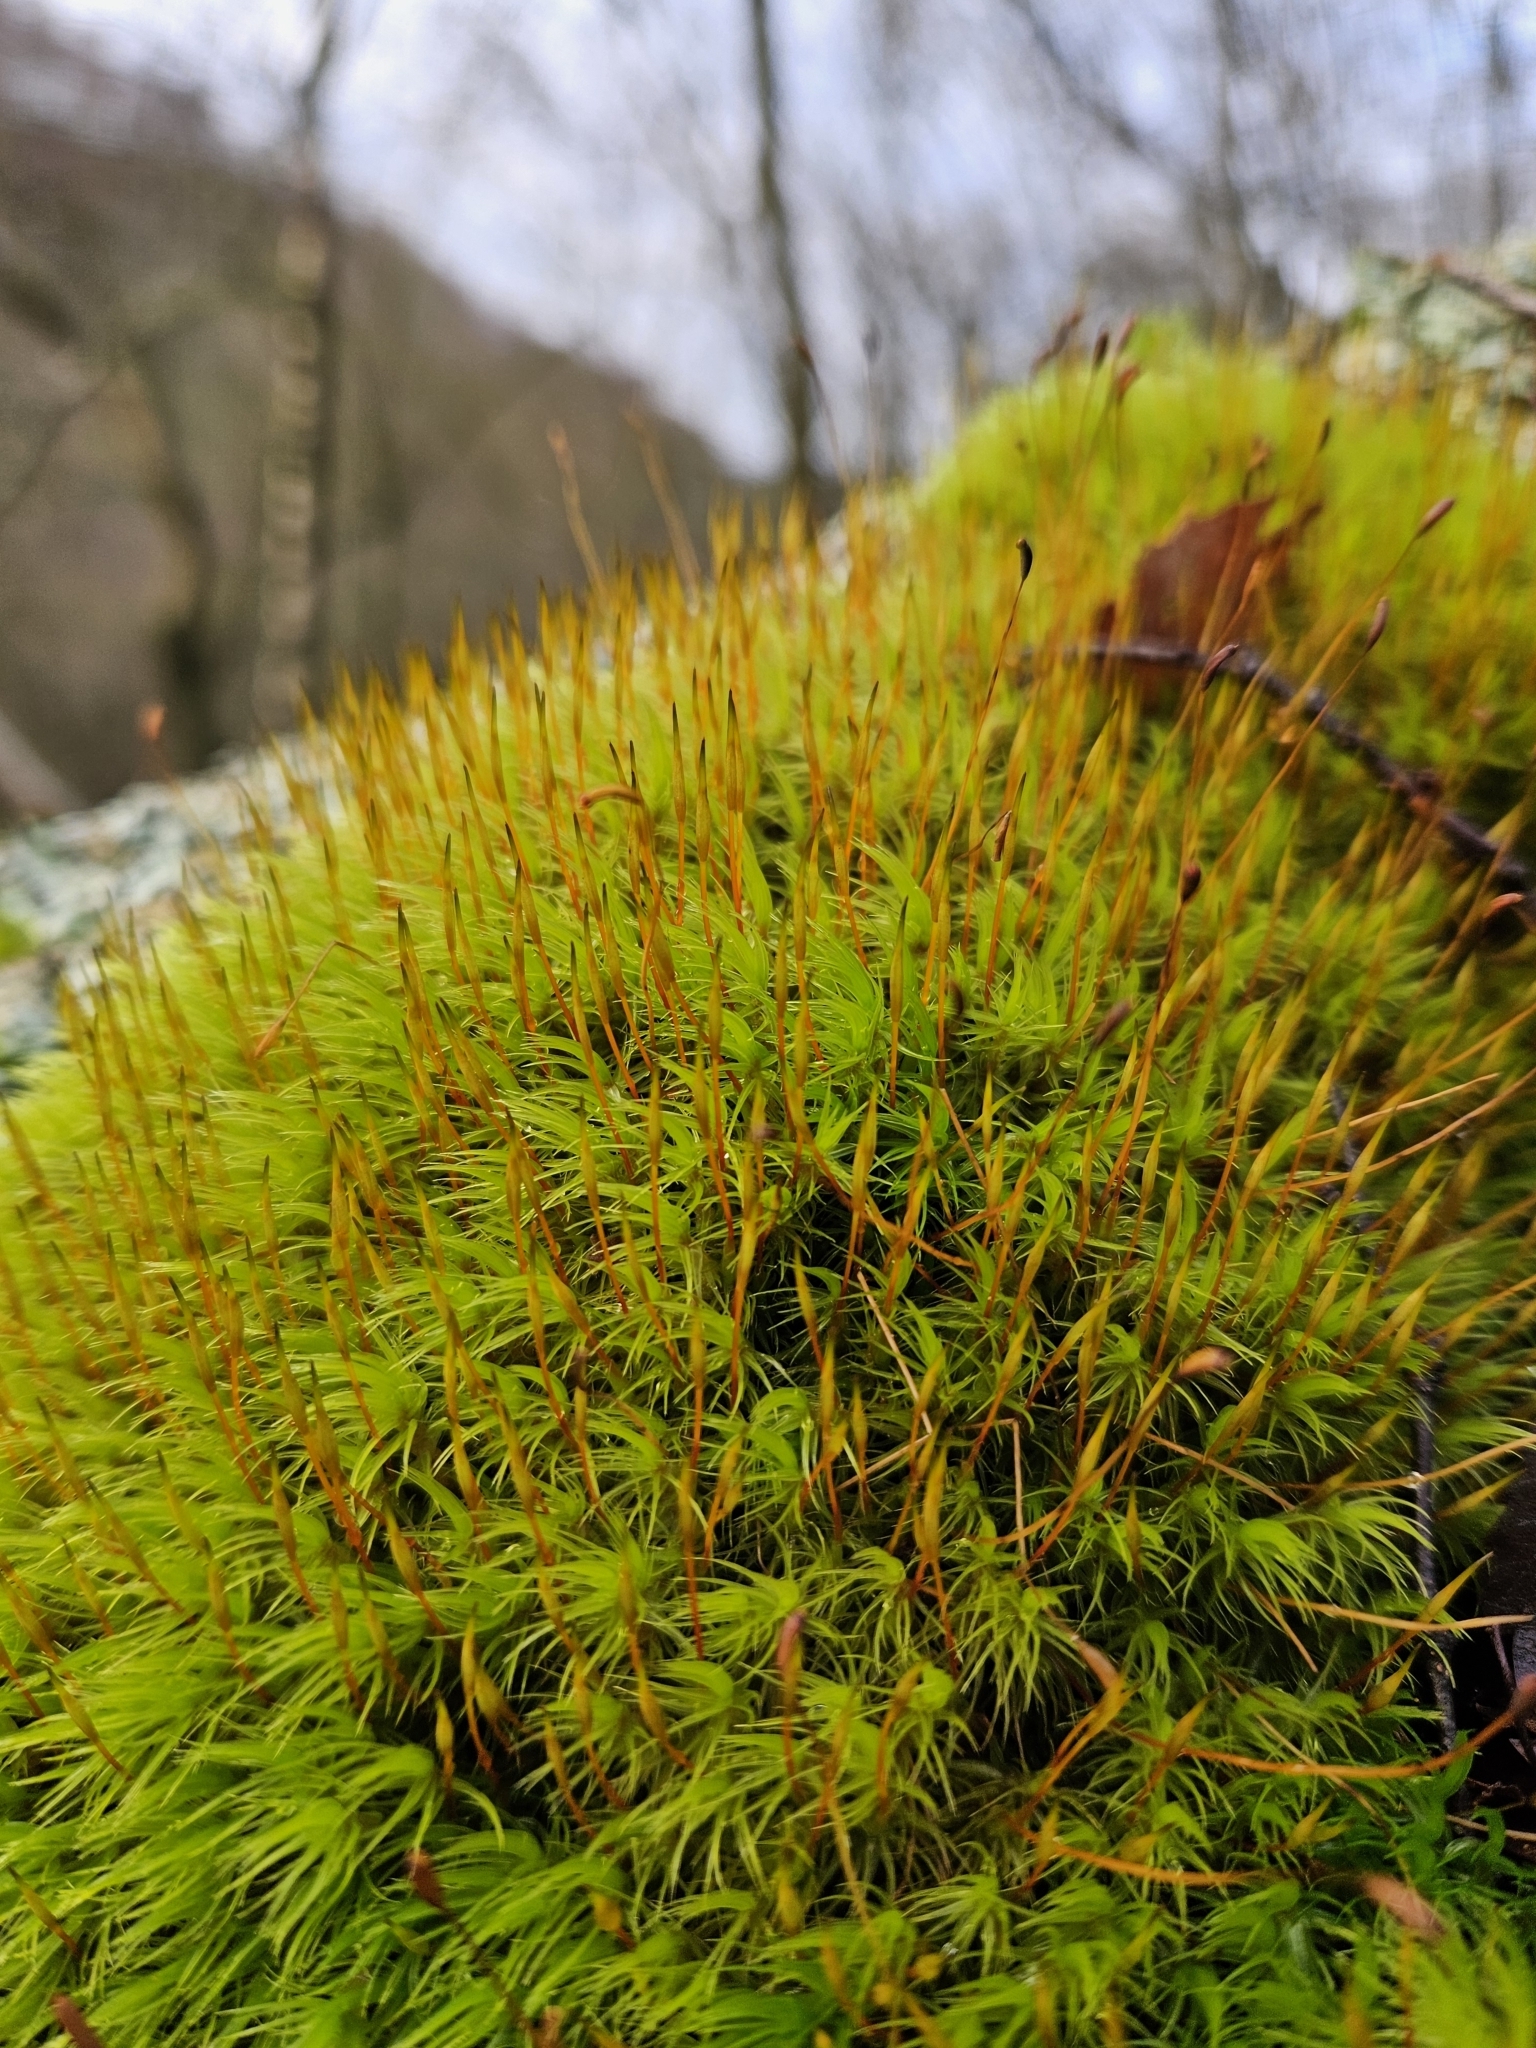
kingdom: Plantae
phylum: Bryophyta
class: Bryopsida
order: Dicranales
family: Dicranaceae
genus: Dicranum
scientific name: Dicranum scoparium
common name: Broom fork-moss
